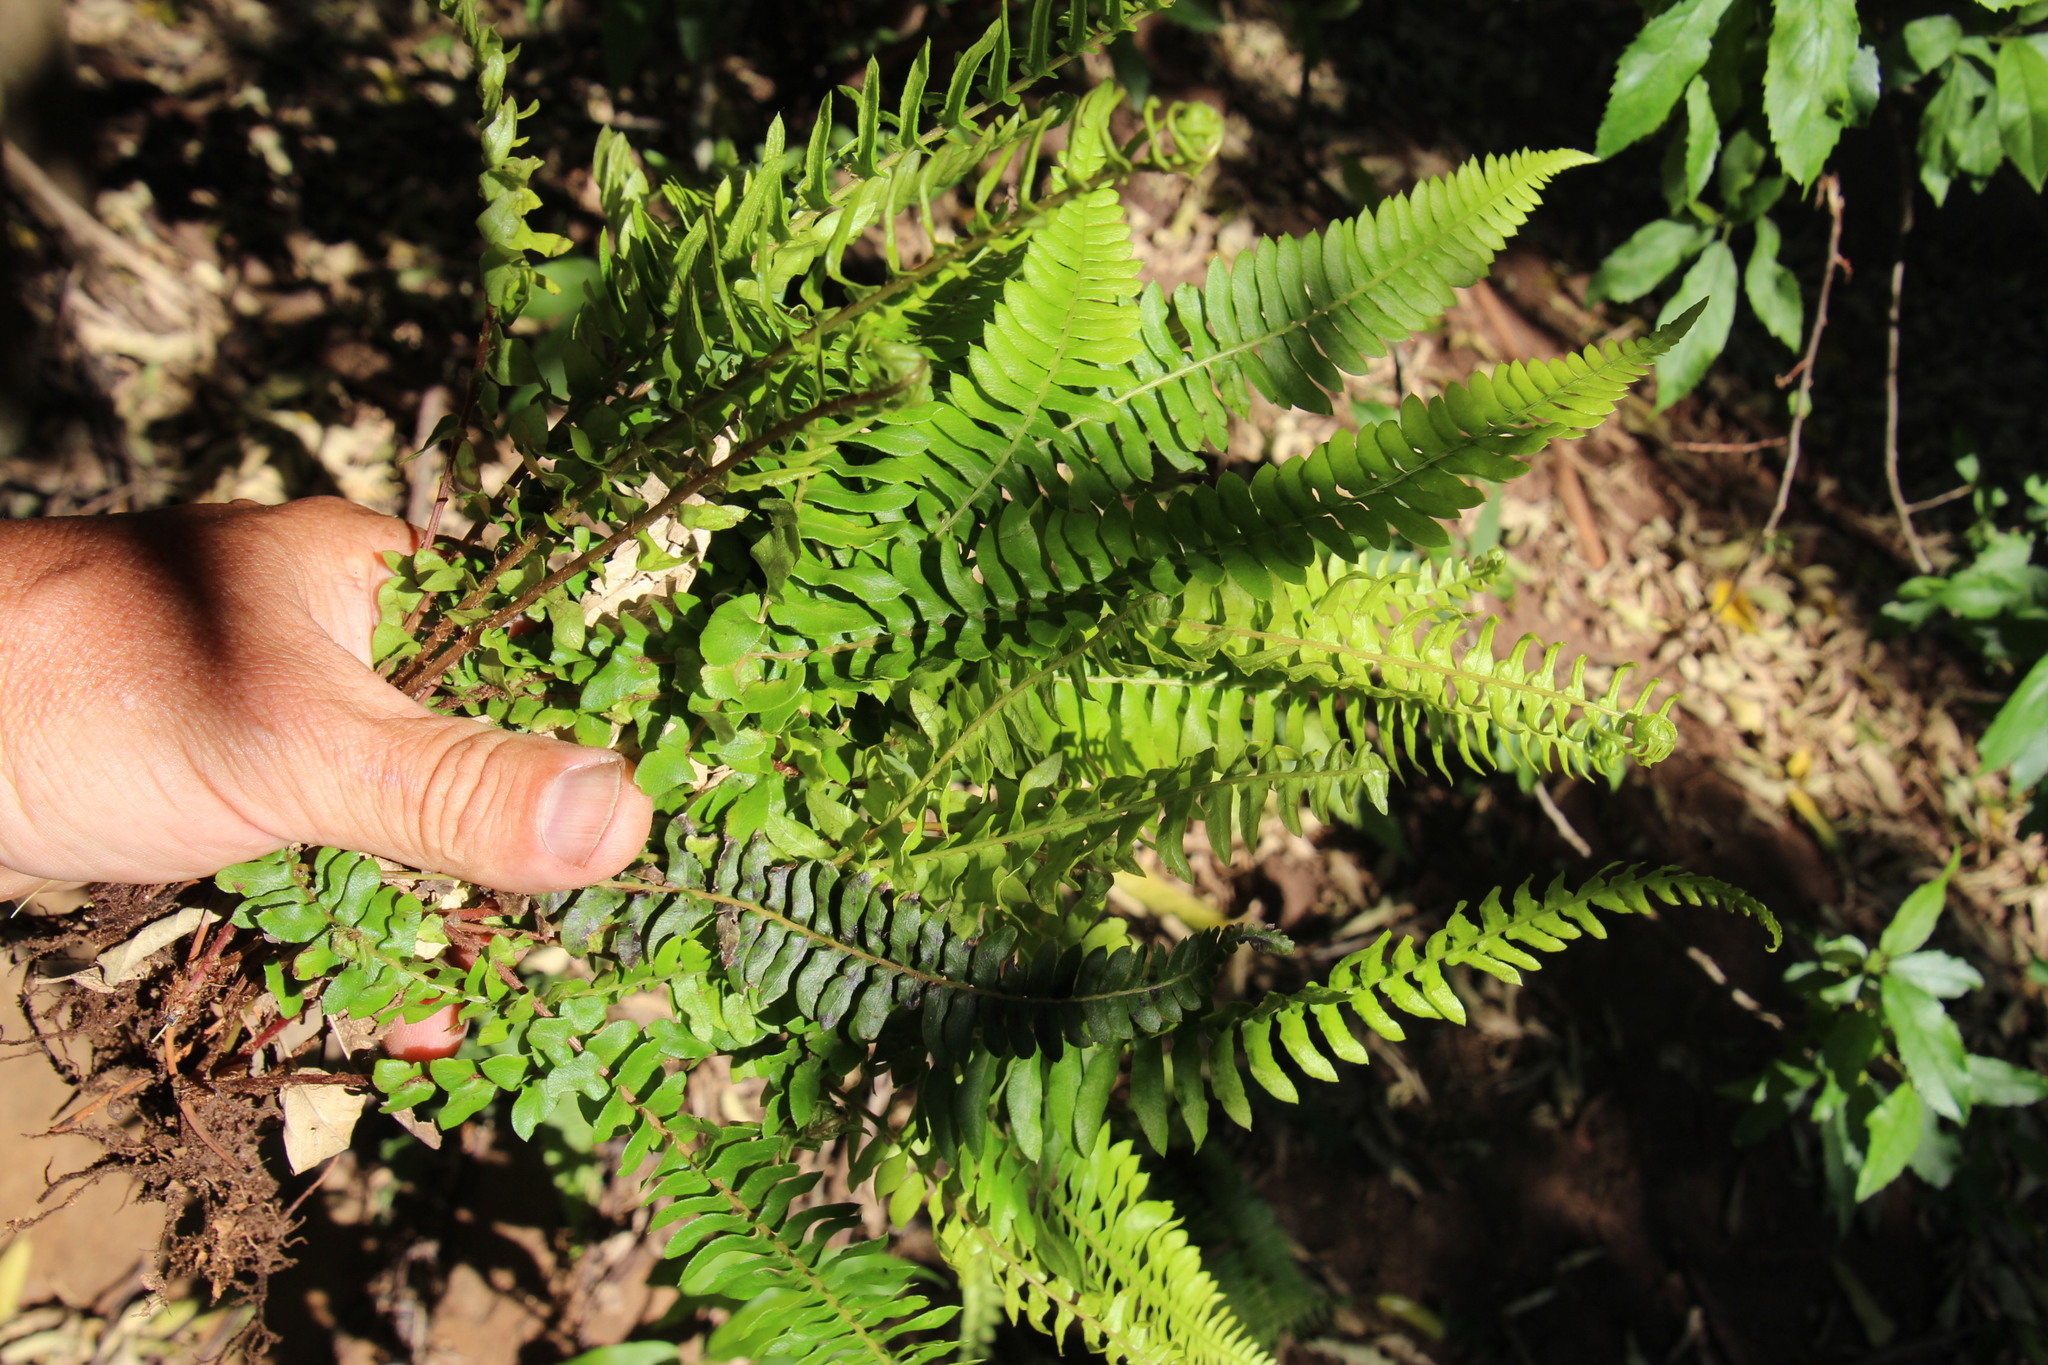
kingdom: Plantae
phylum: Tracheophyta
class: Polypodiopsida
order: Polypodiales
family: Blechnaceae
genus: Blechnum
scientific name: Blechnum australe
